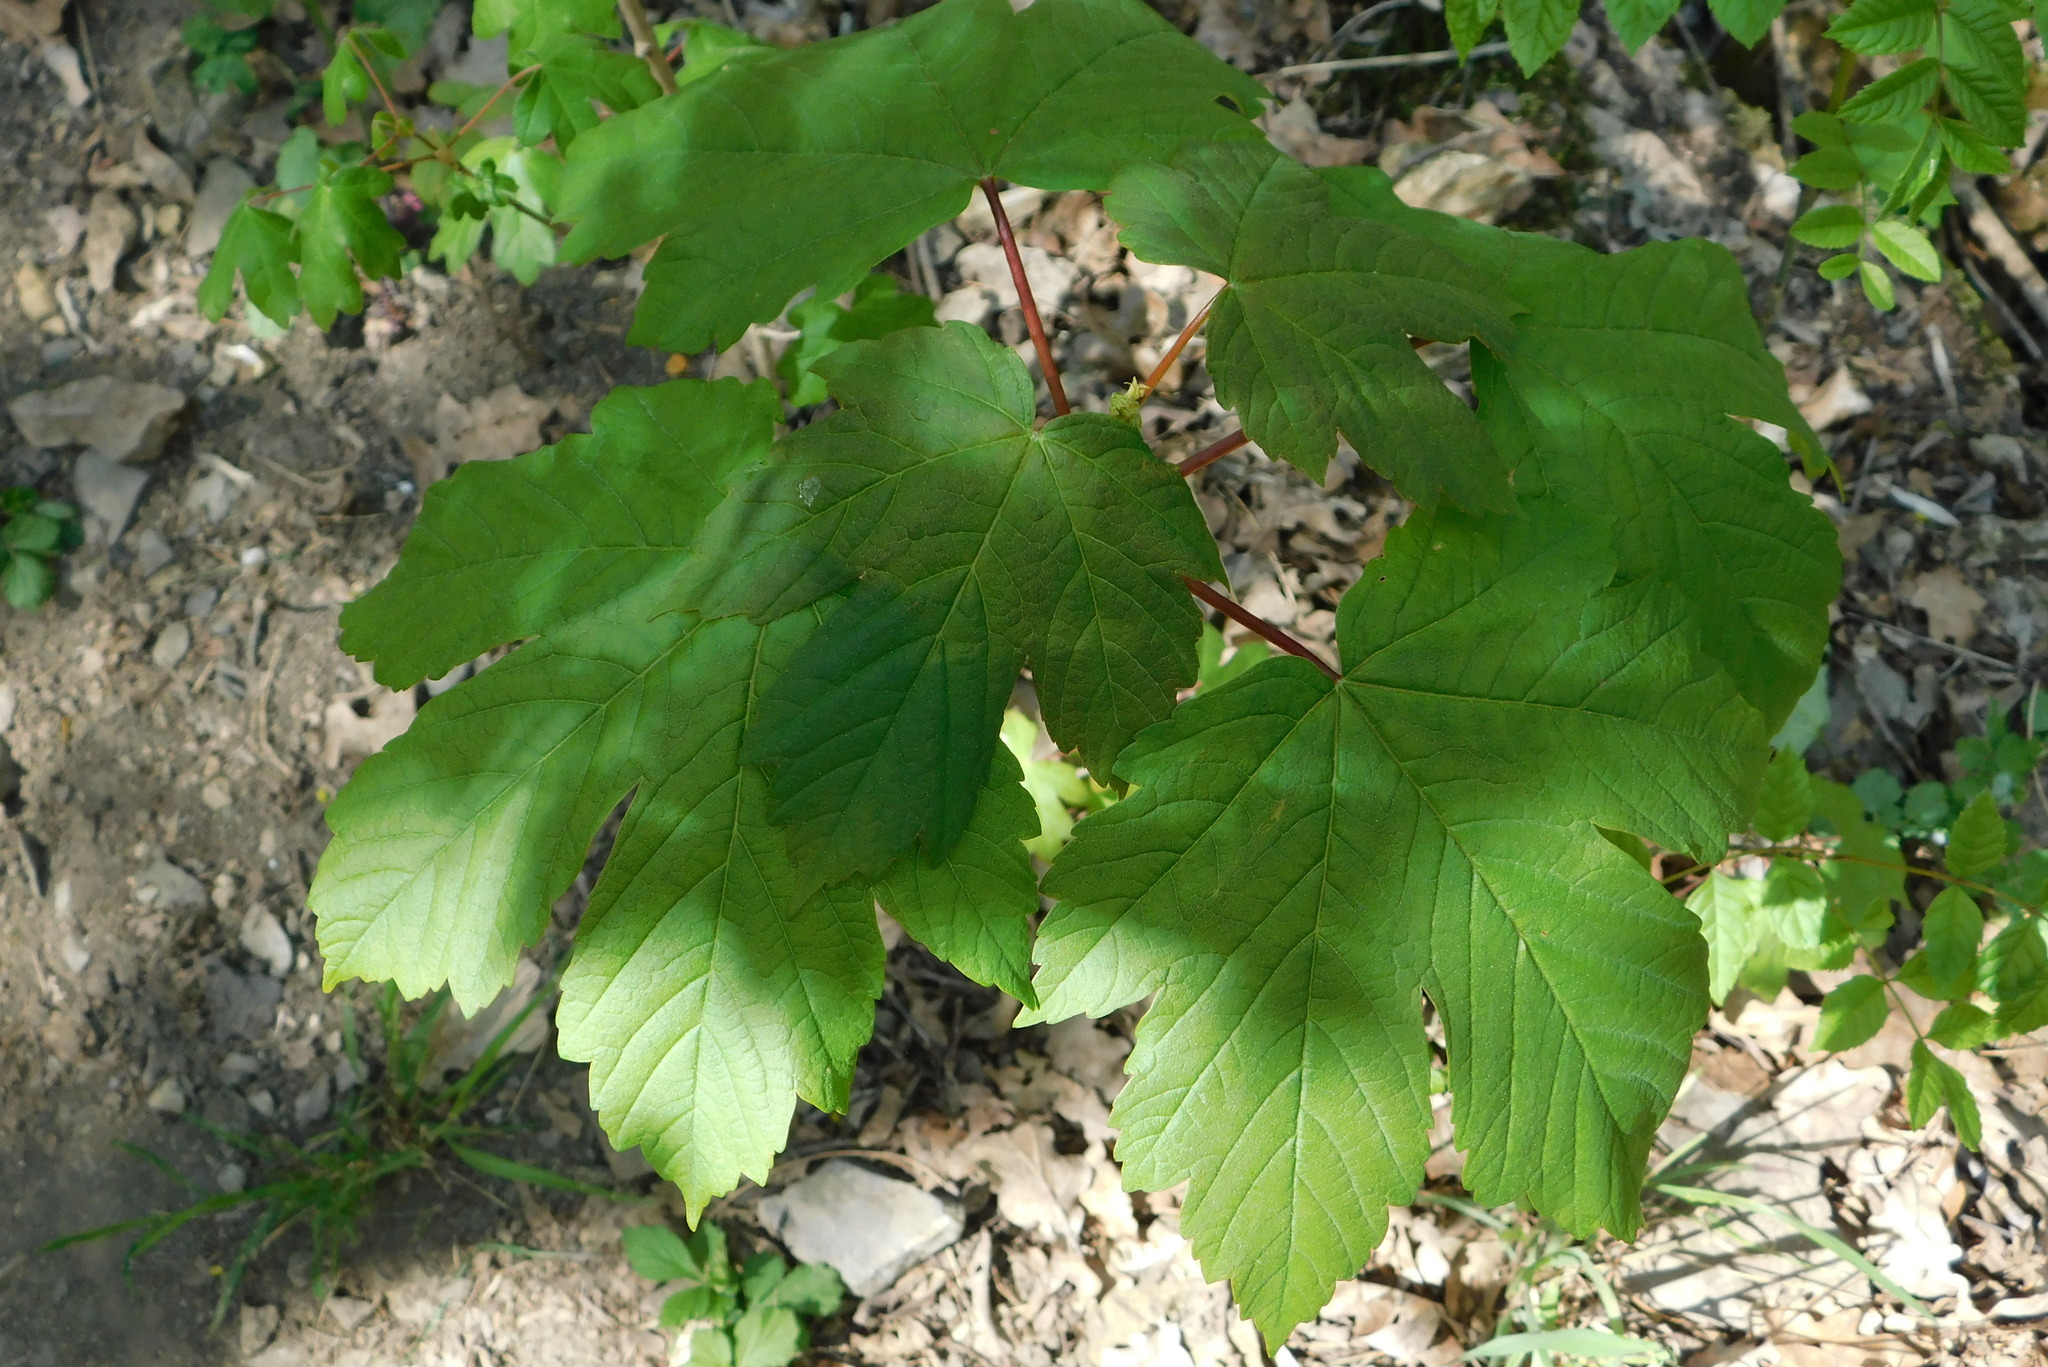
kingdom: Plantae
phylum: Tracheophyta
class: Magnoliopsida
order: Sapindales
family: Sapindaceae
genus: Acer
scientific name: Acer pseudoplatanus
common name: Sycamore
